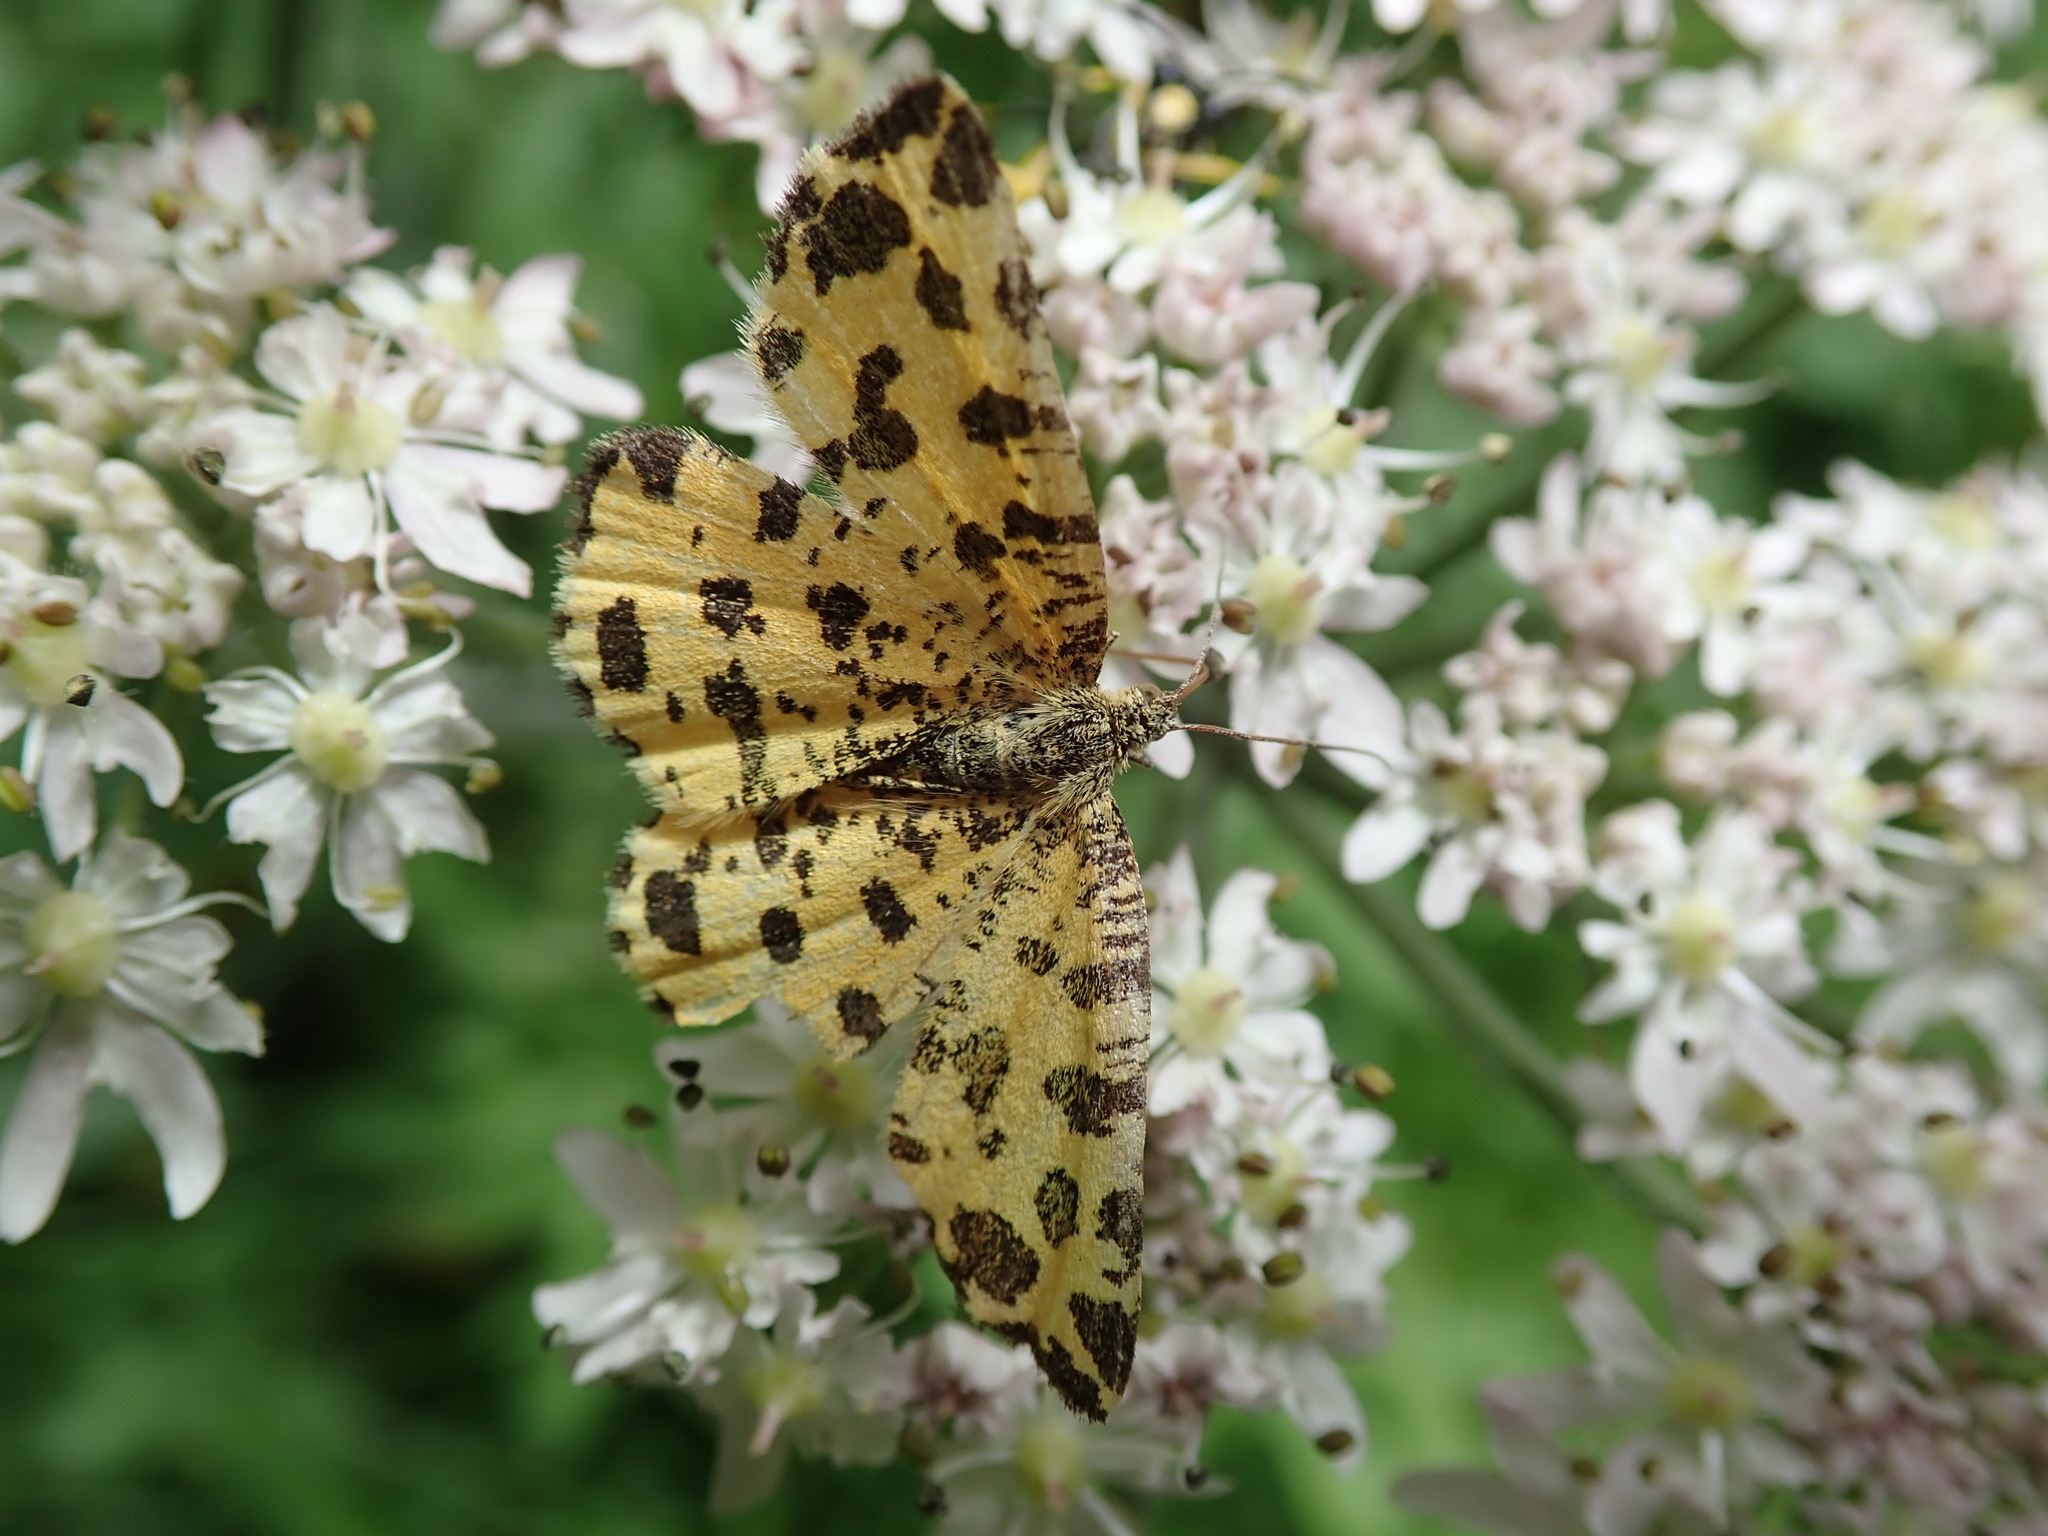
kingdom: Animalia
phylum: Arthropoda
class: Insecta
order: Lepidoptera
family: Geometridae
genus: Pseudopanthera
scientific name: Pseudopanthera macularia
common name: Speckled yellow
